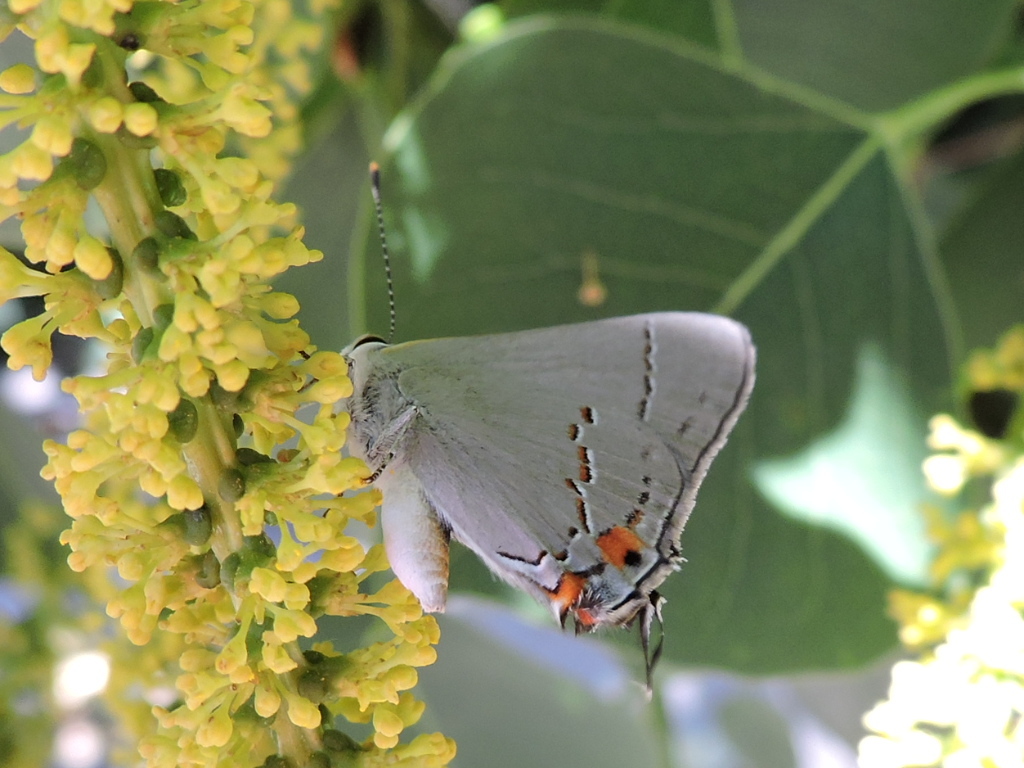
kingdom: Animalia
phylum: Arthropoda
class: Insecta
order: Lepidoptera
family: Lycaenidae
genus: Strymon
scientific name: Strymon melinus
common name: Gray hairstreak
